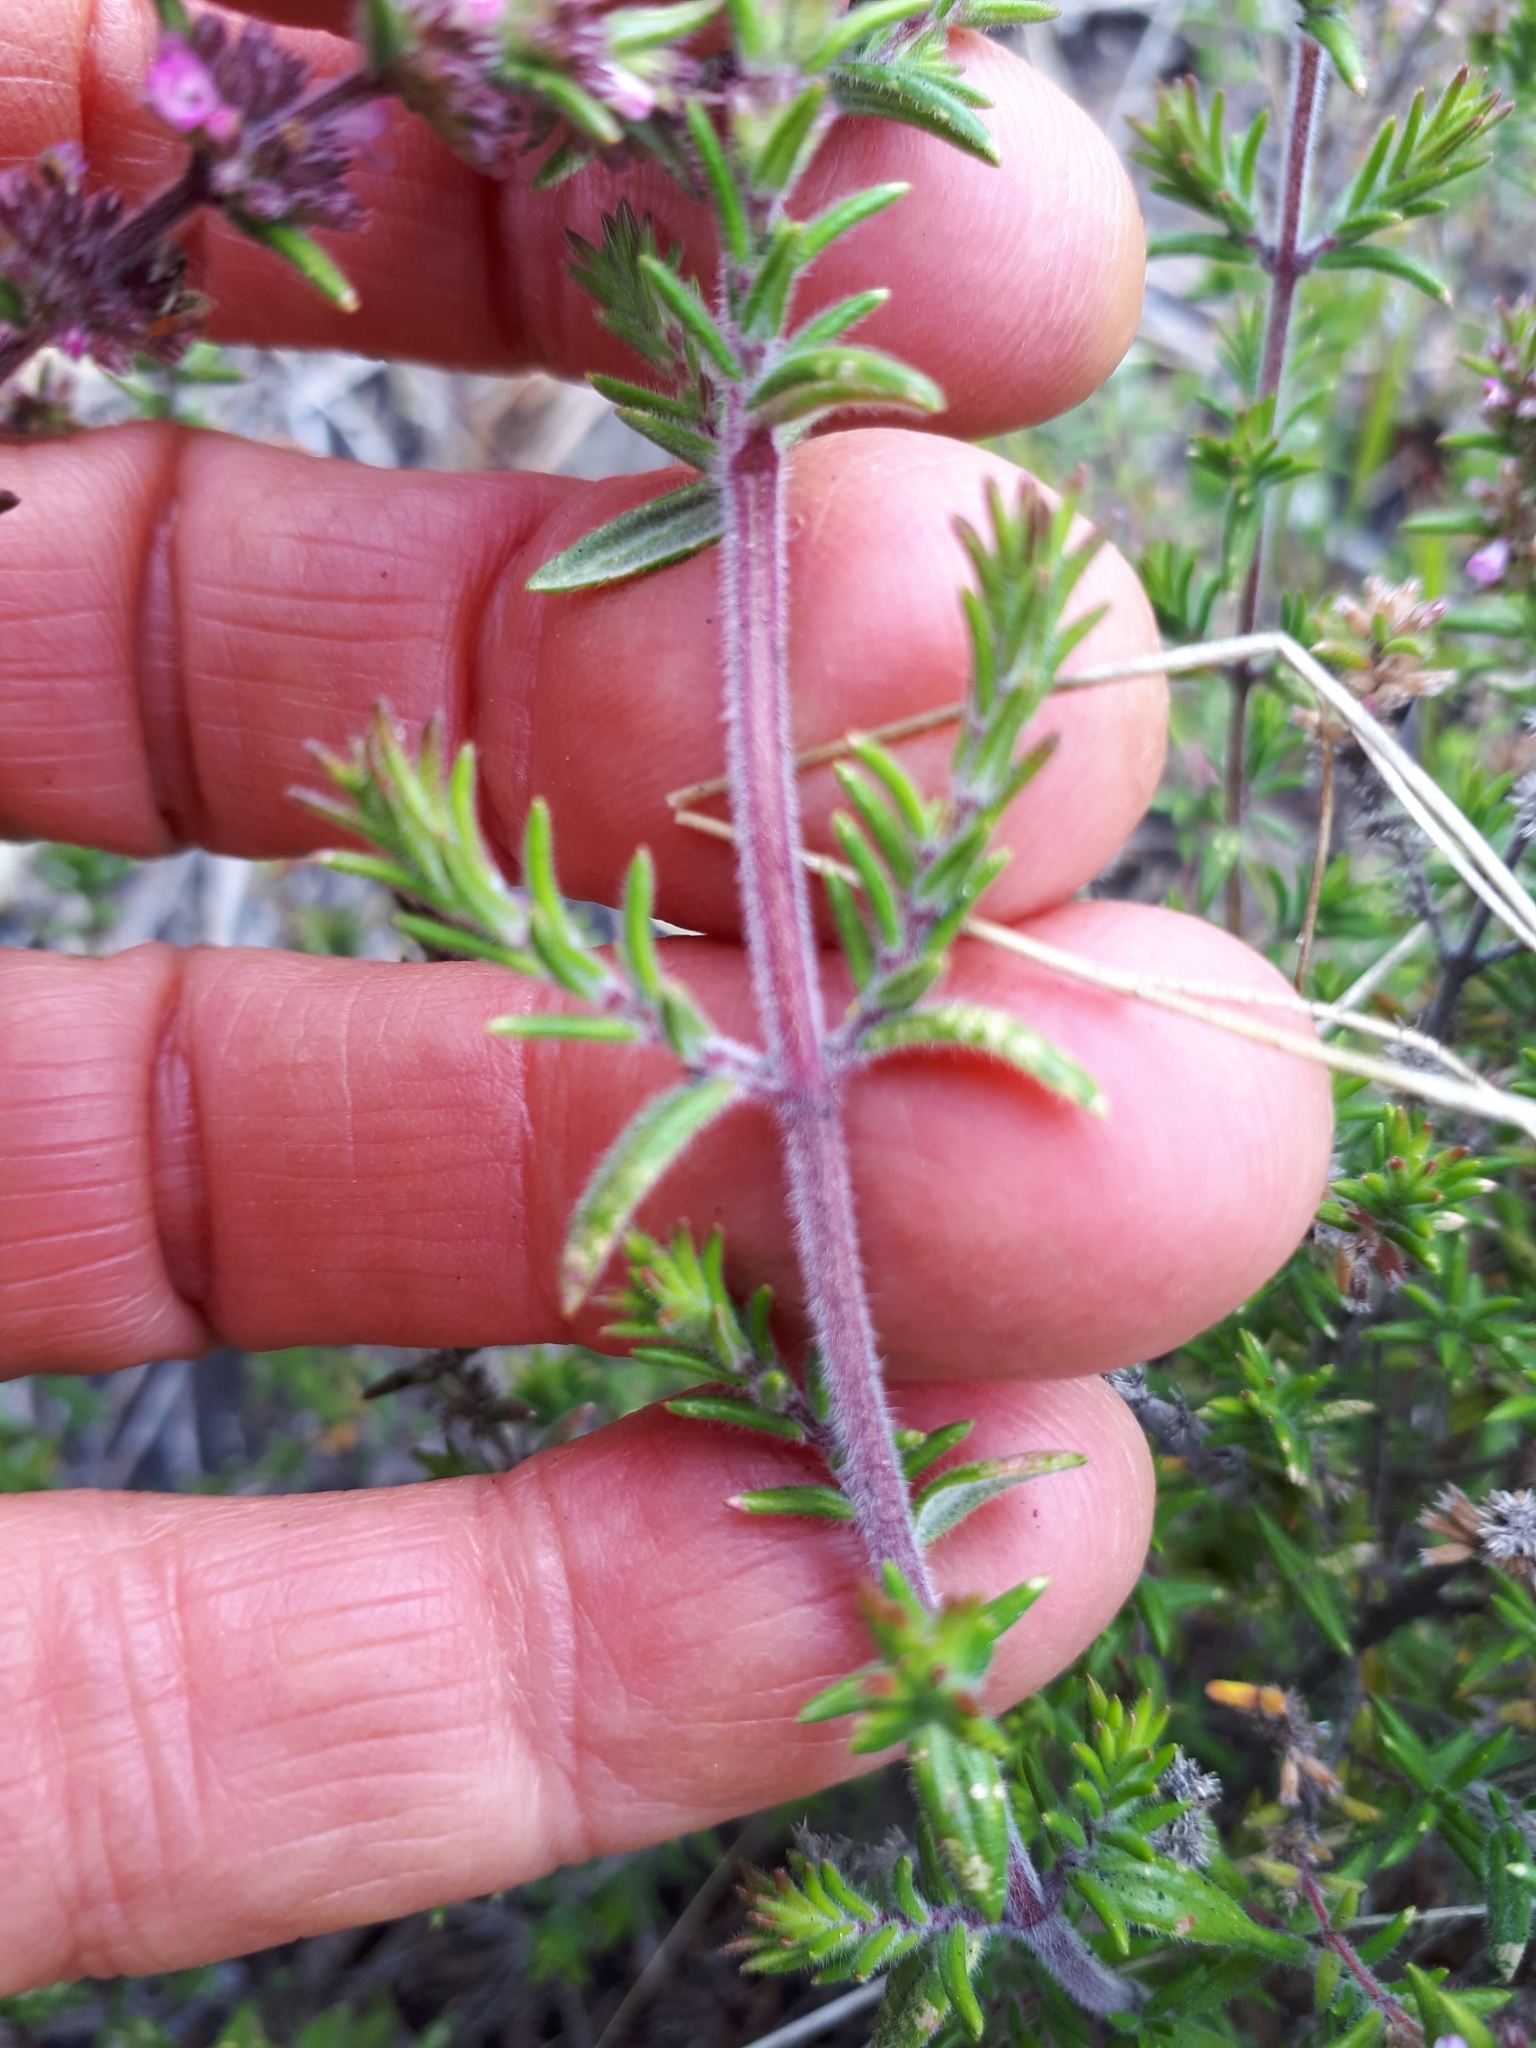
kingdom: Plantae
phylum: Tracheophyta
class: Magnoliopsida
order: Lamiales
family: Lamiaceae
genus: Micromeria
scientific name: Micromeria herpyllomorpha
